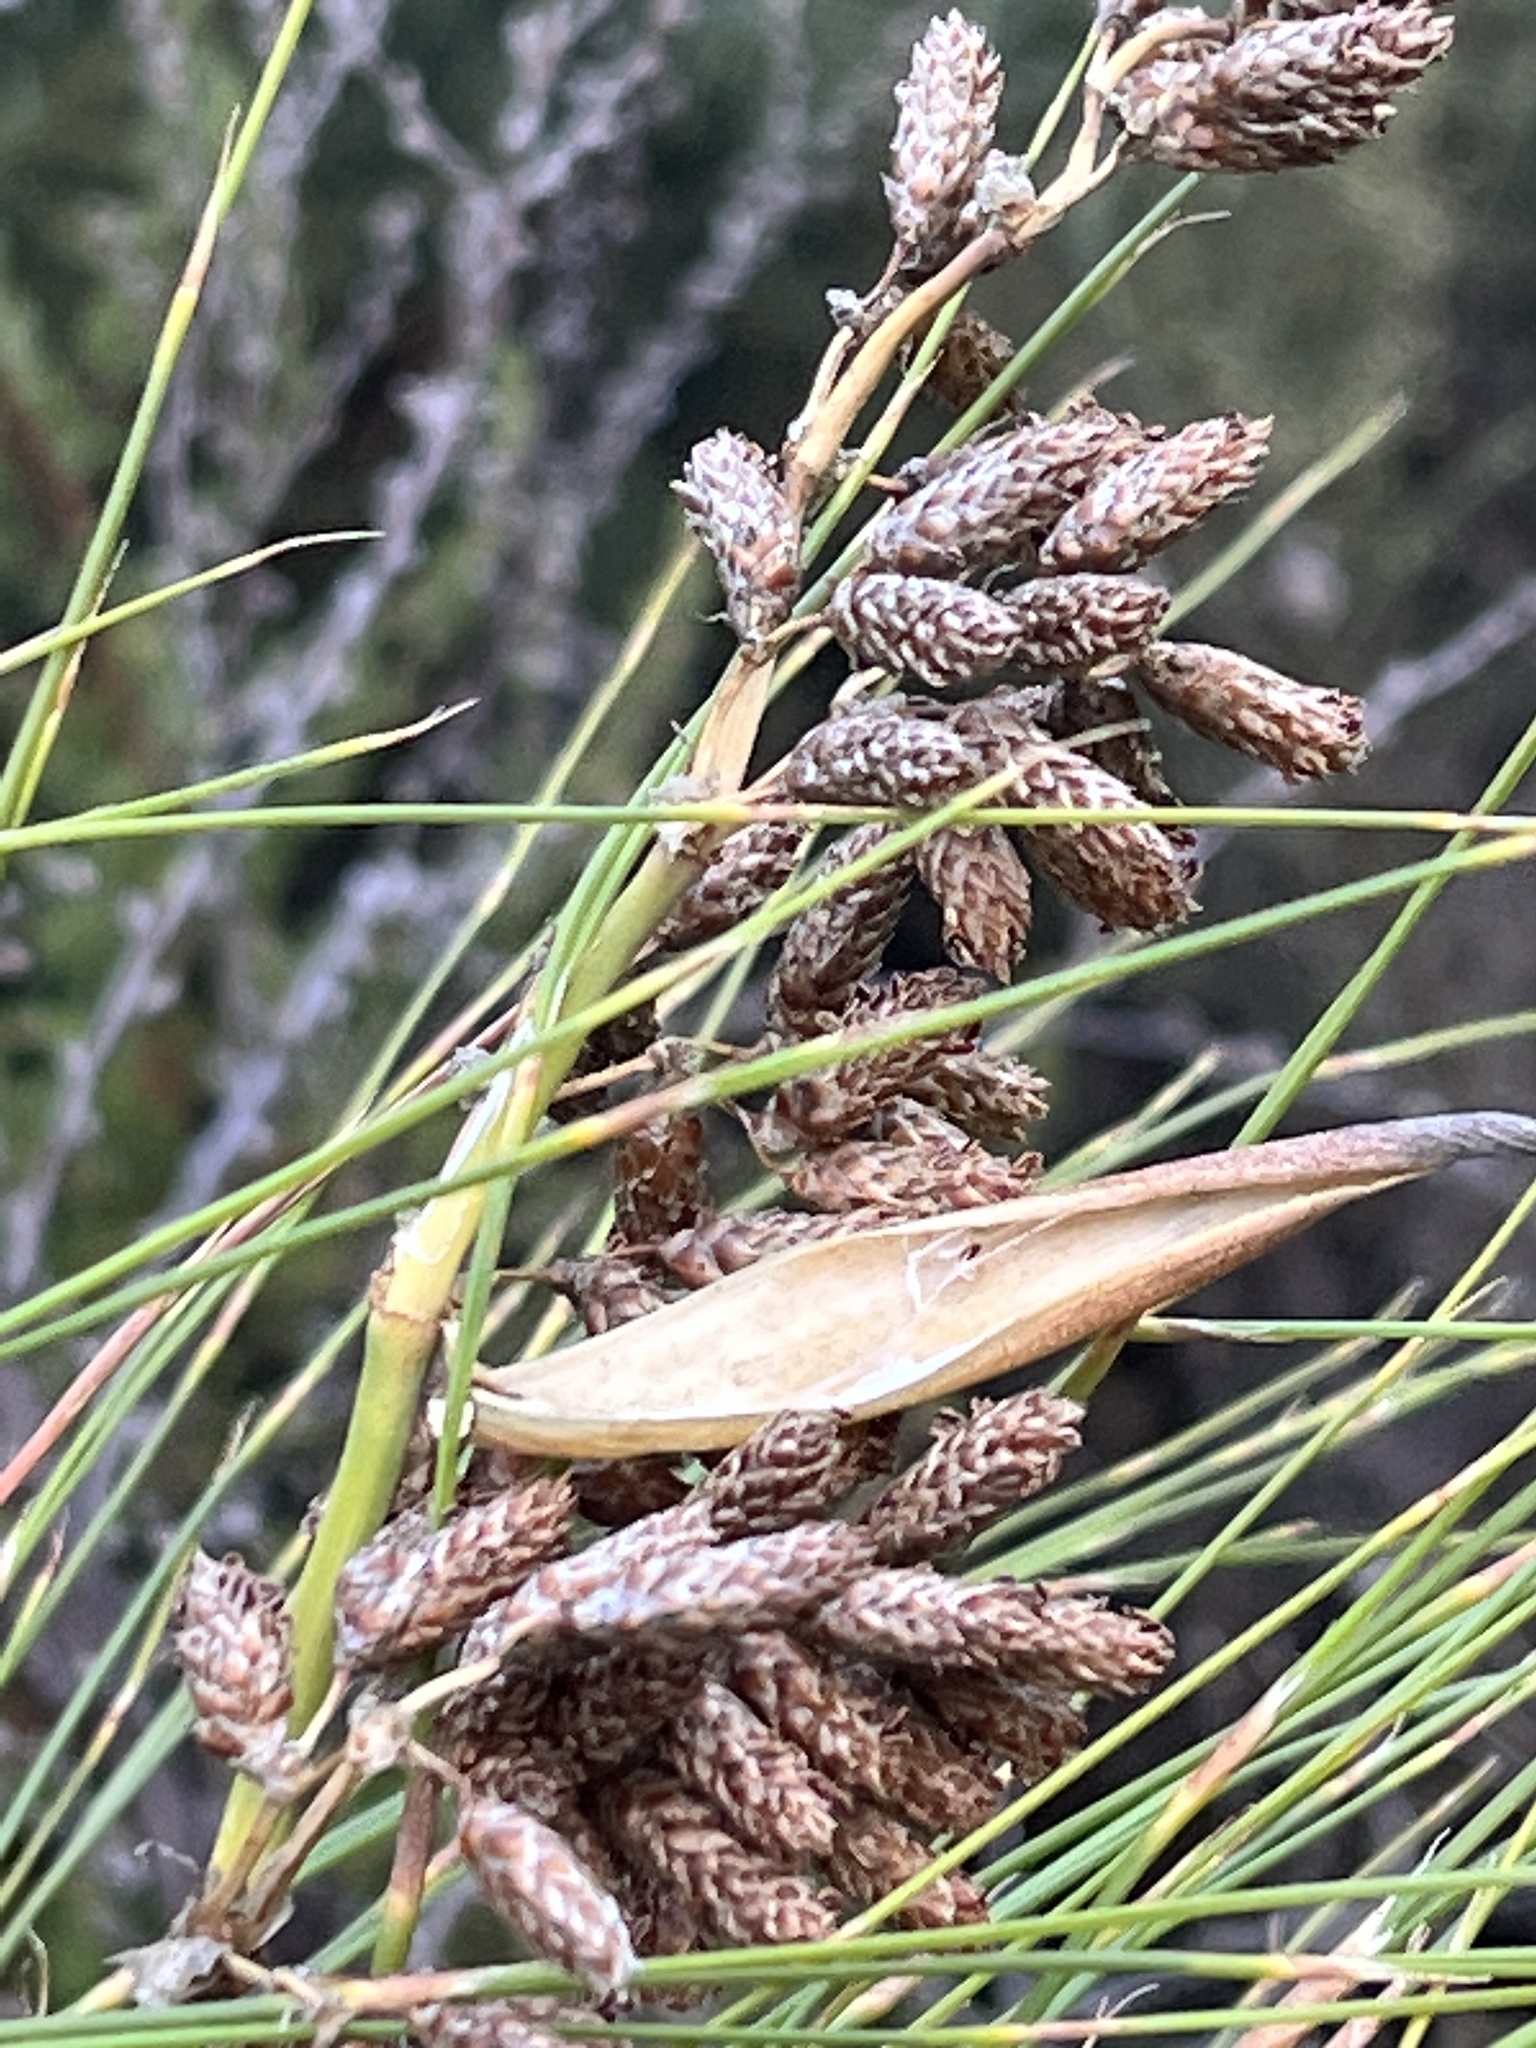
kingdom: Plantae
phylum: Tracheophyta
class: Liliopsida
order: Poales
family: Restionaceae
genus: Cannomois
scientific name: Cannomois robusta
